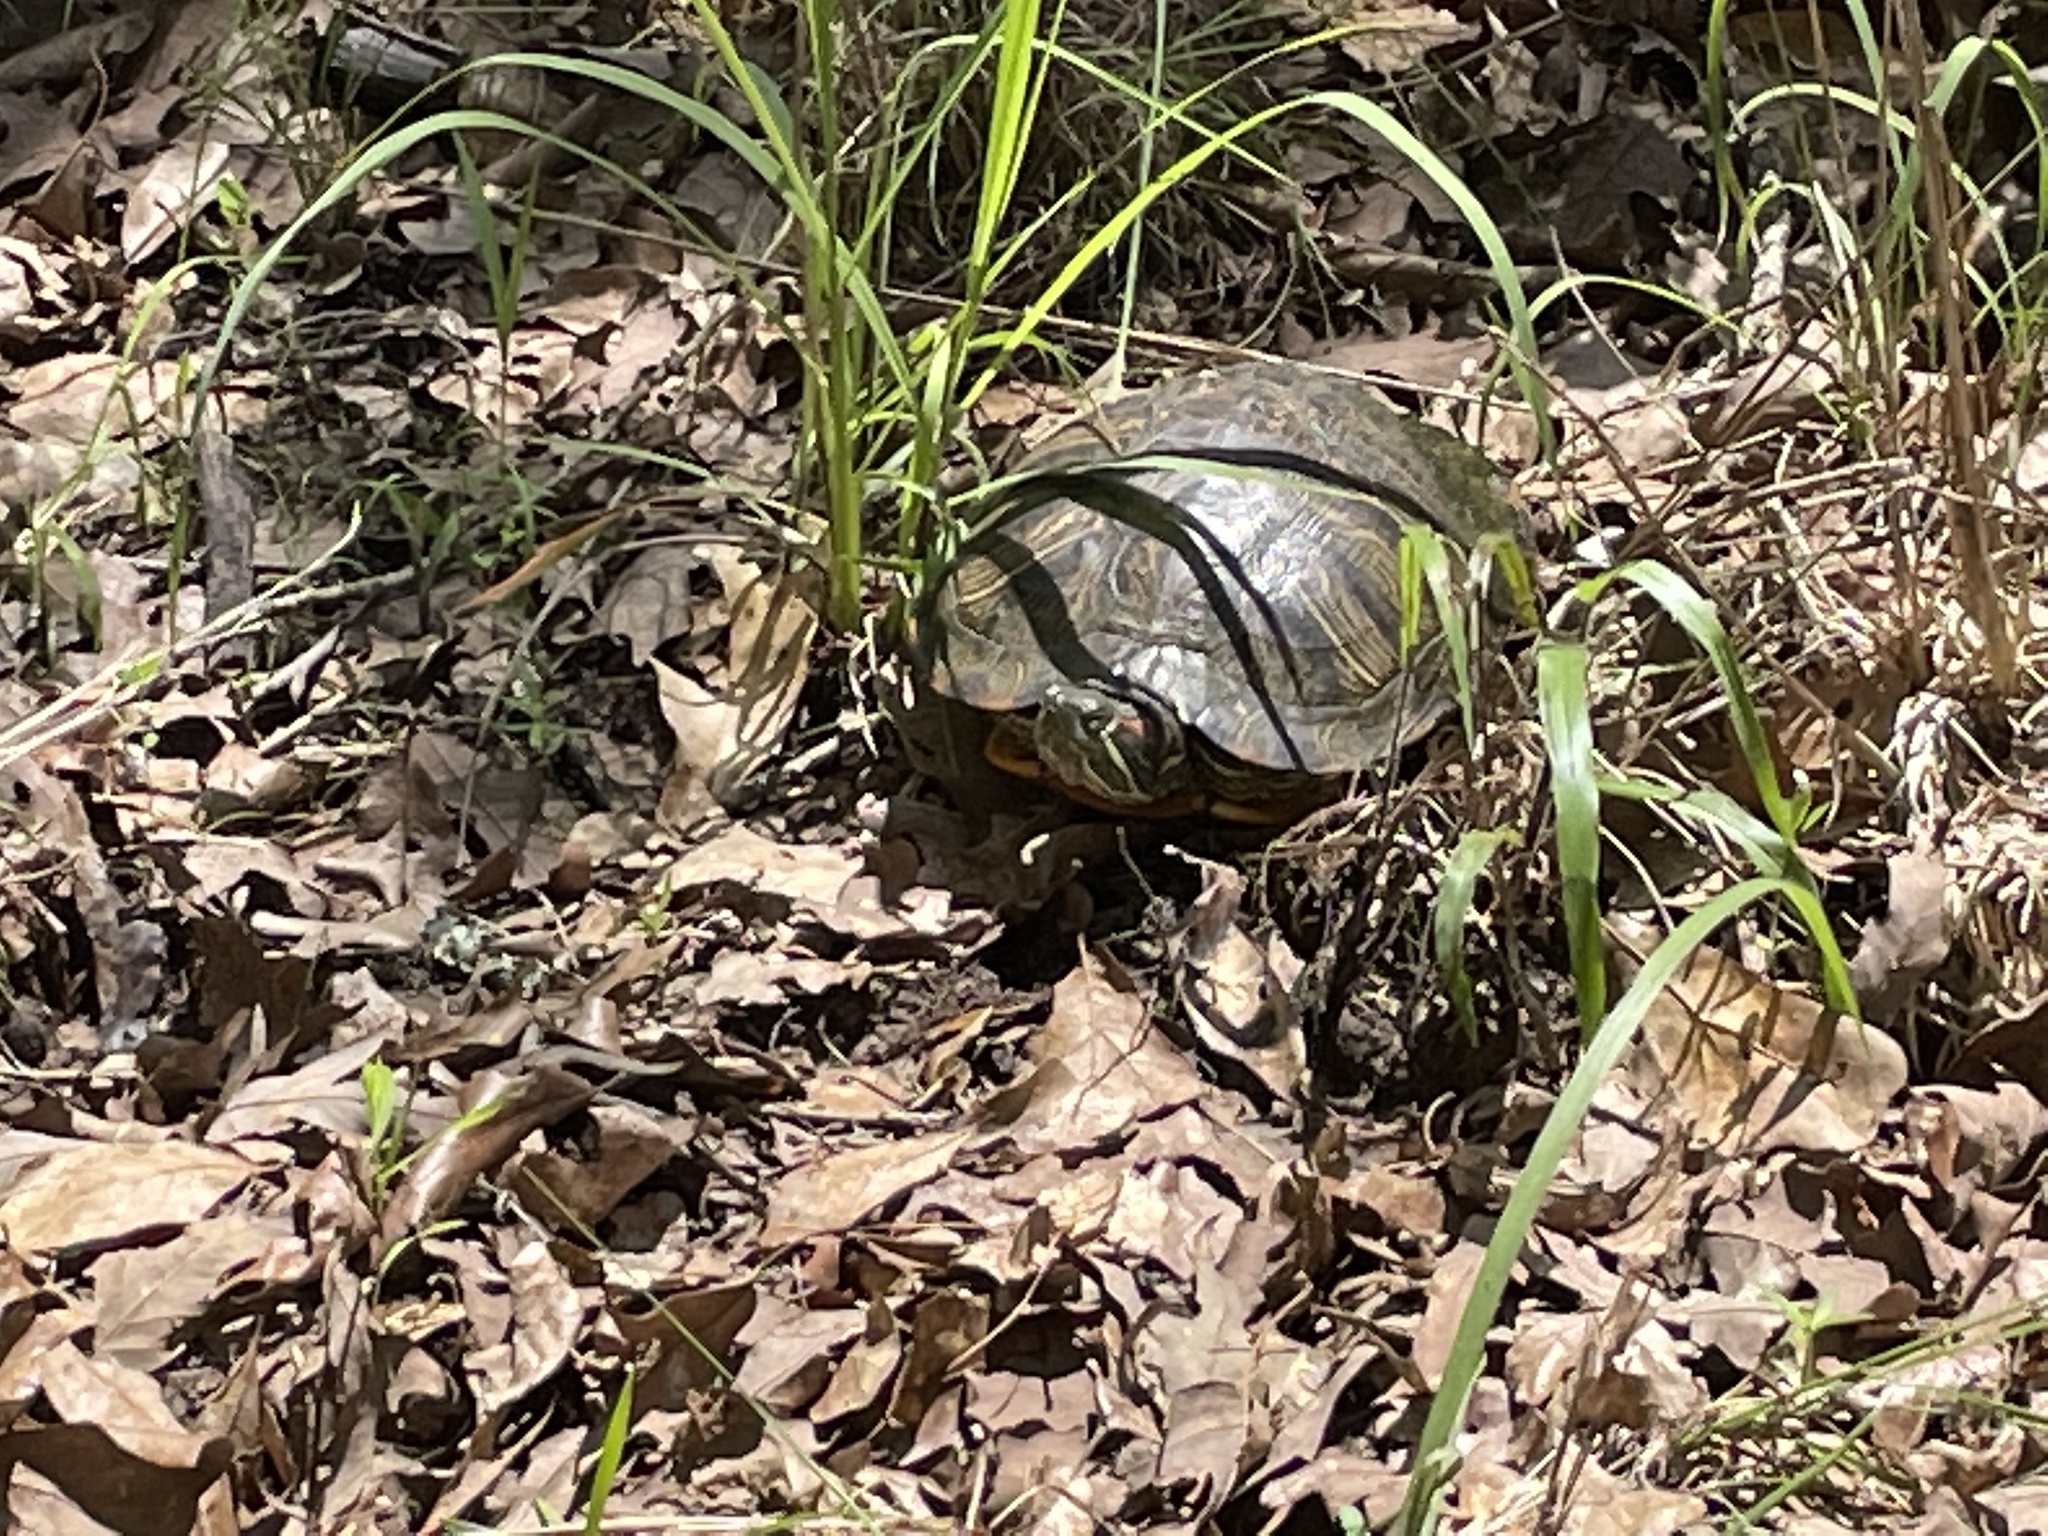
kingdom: Animalia
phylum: Chordata
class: Testudines
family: Emydidae
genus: Trachemys
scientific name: Trachemys scripta
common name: Slider
